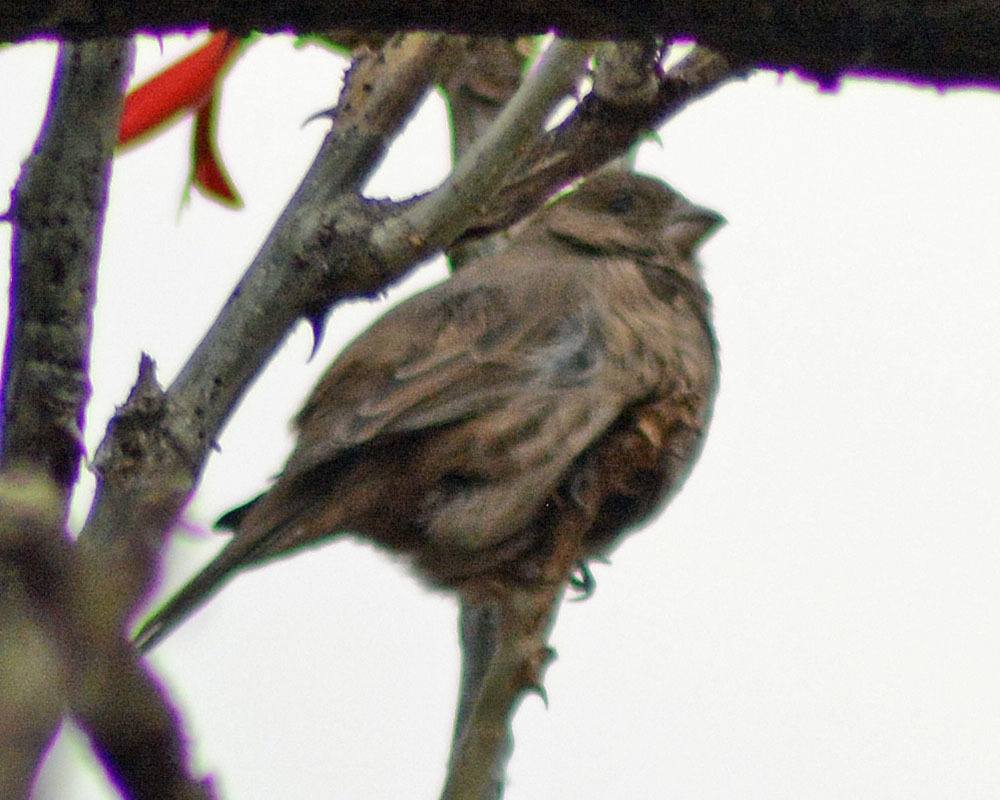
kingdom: Animalia
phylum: Chordata
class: Aves
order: Passeriformes
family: Fringillidae
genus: Haemorhous
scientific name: Haemorhous mexicanus
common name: House finch
